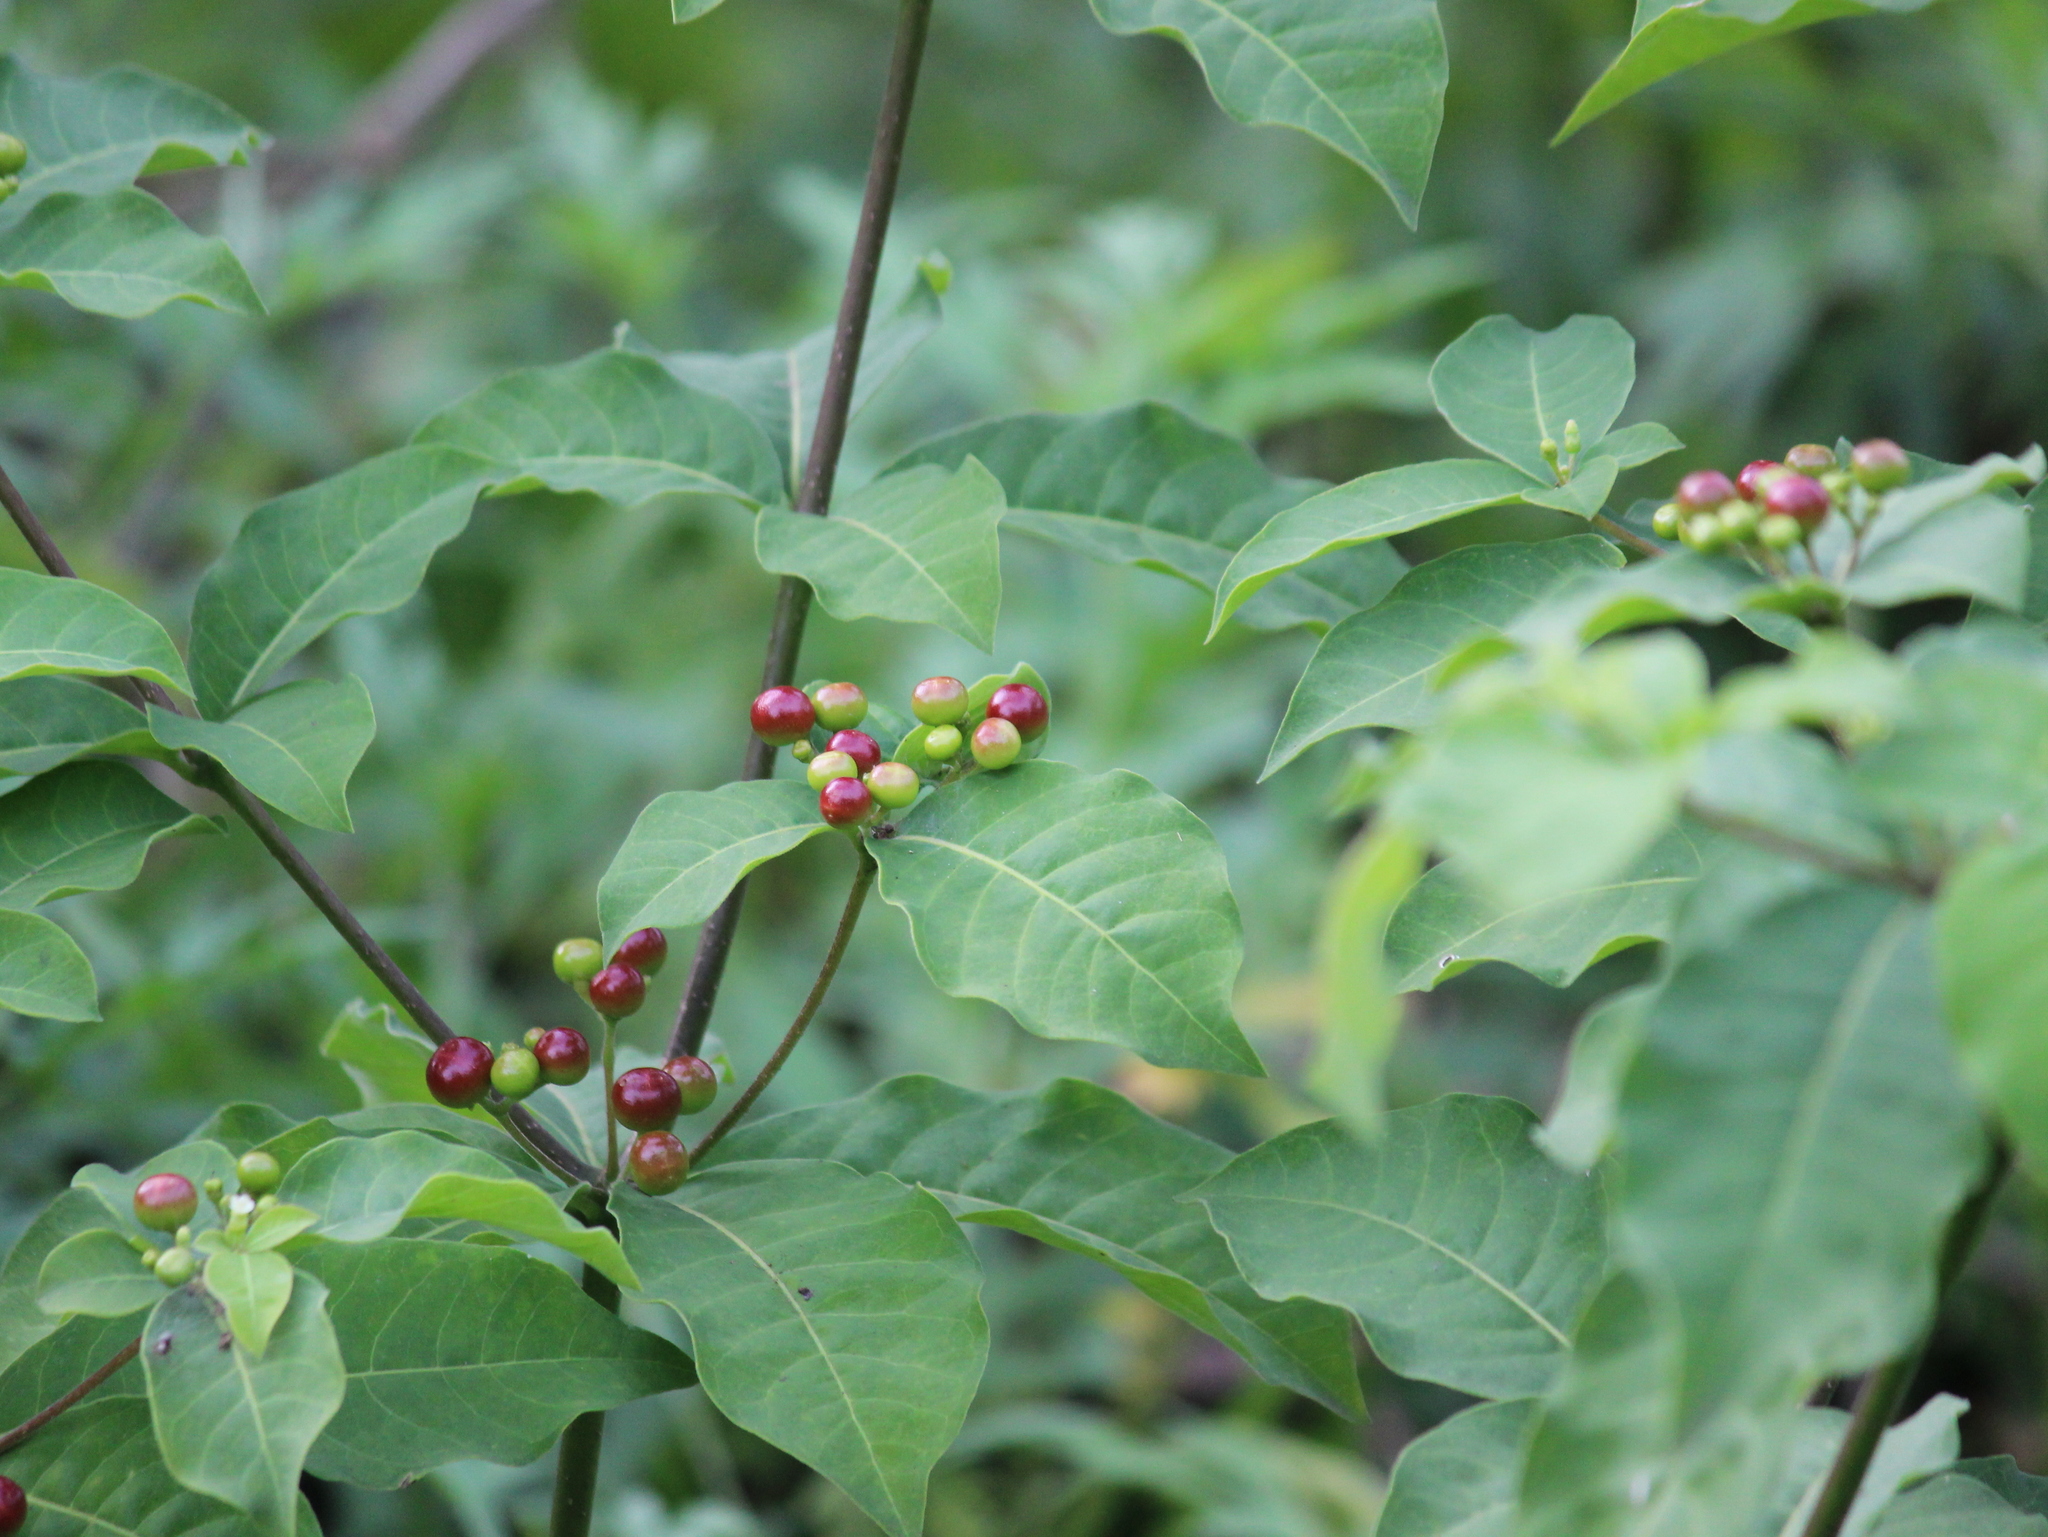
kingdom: Plantae
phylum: Tracheophyta
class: Magnoliopsida
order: Gentianales
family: Apocynaceae
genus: Rauvolfia
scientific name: Rauvolfia tetraphylla
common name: Four-leaf devil-pepper
